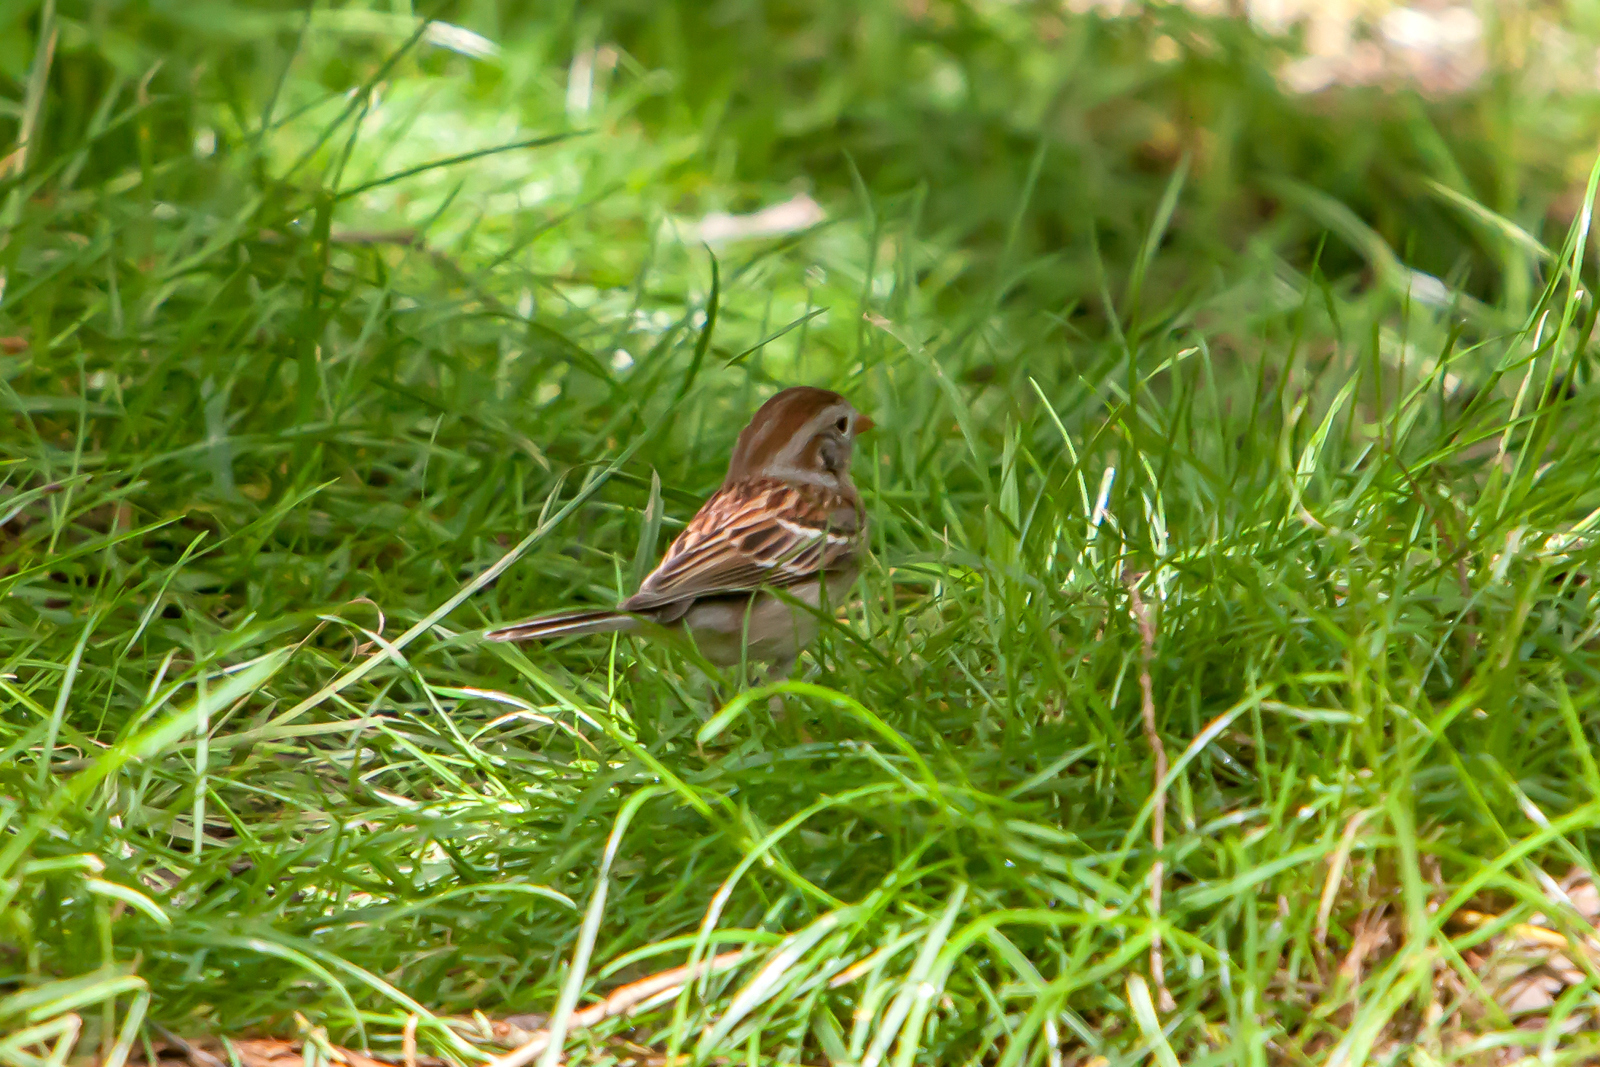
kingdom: Animalia
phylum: Chordata
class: Aves
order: Passeriformes
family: Passerellidae
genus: Spizella
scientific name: Spizella pusilla
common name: Field sparrow
